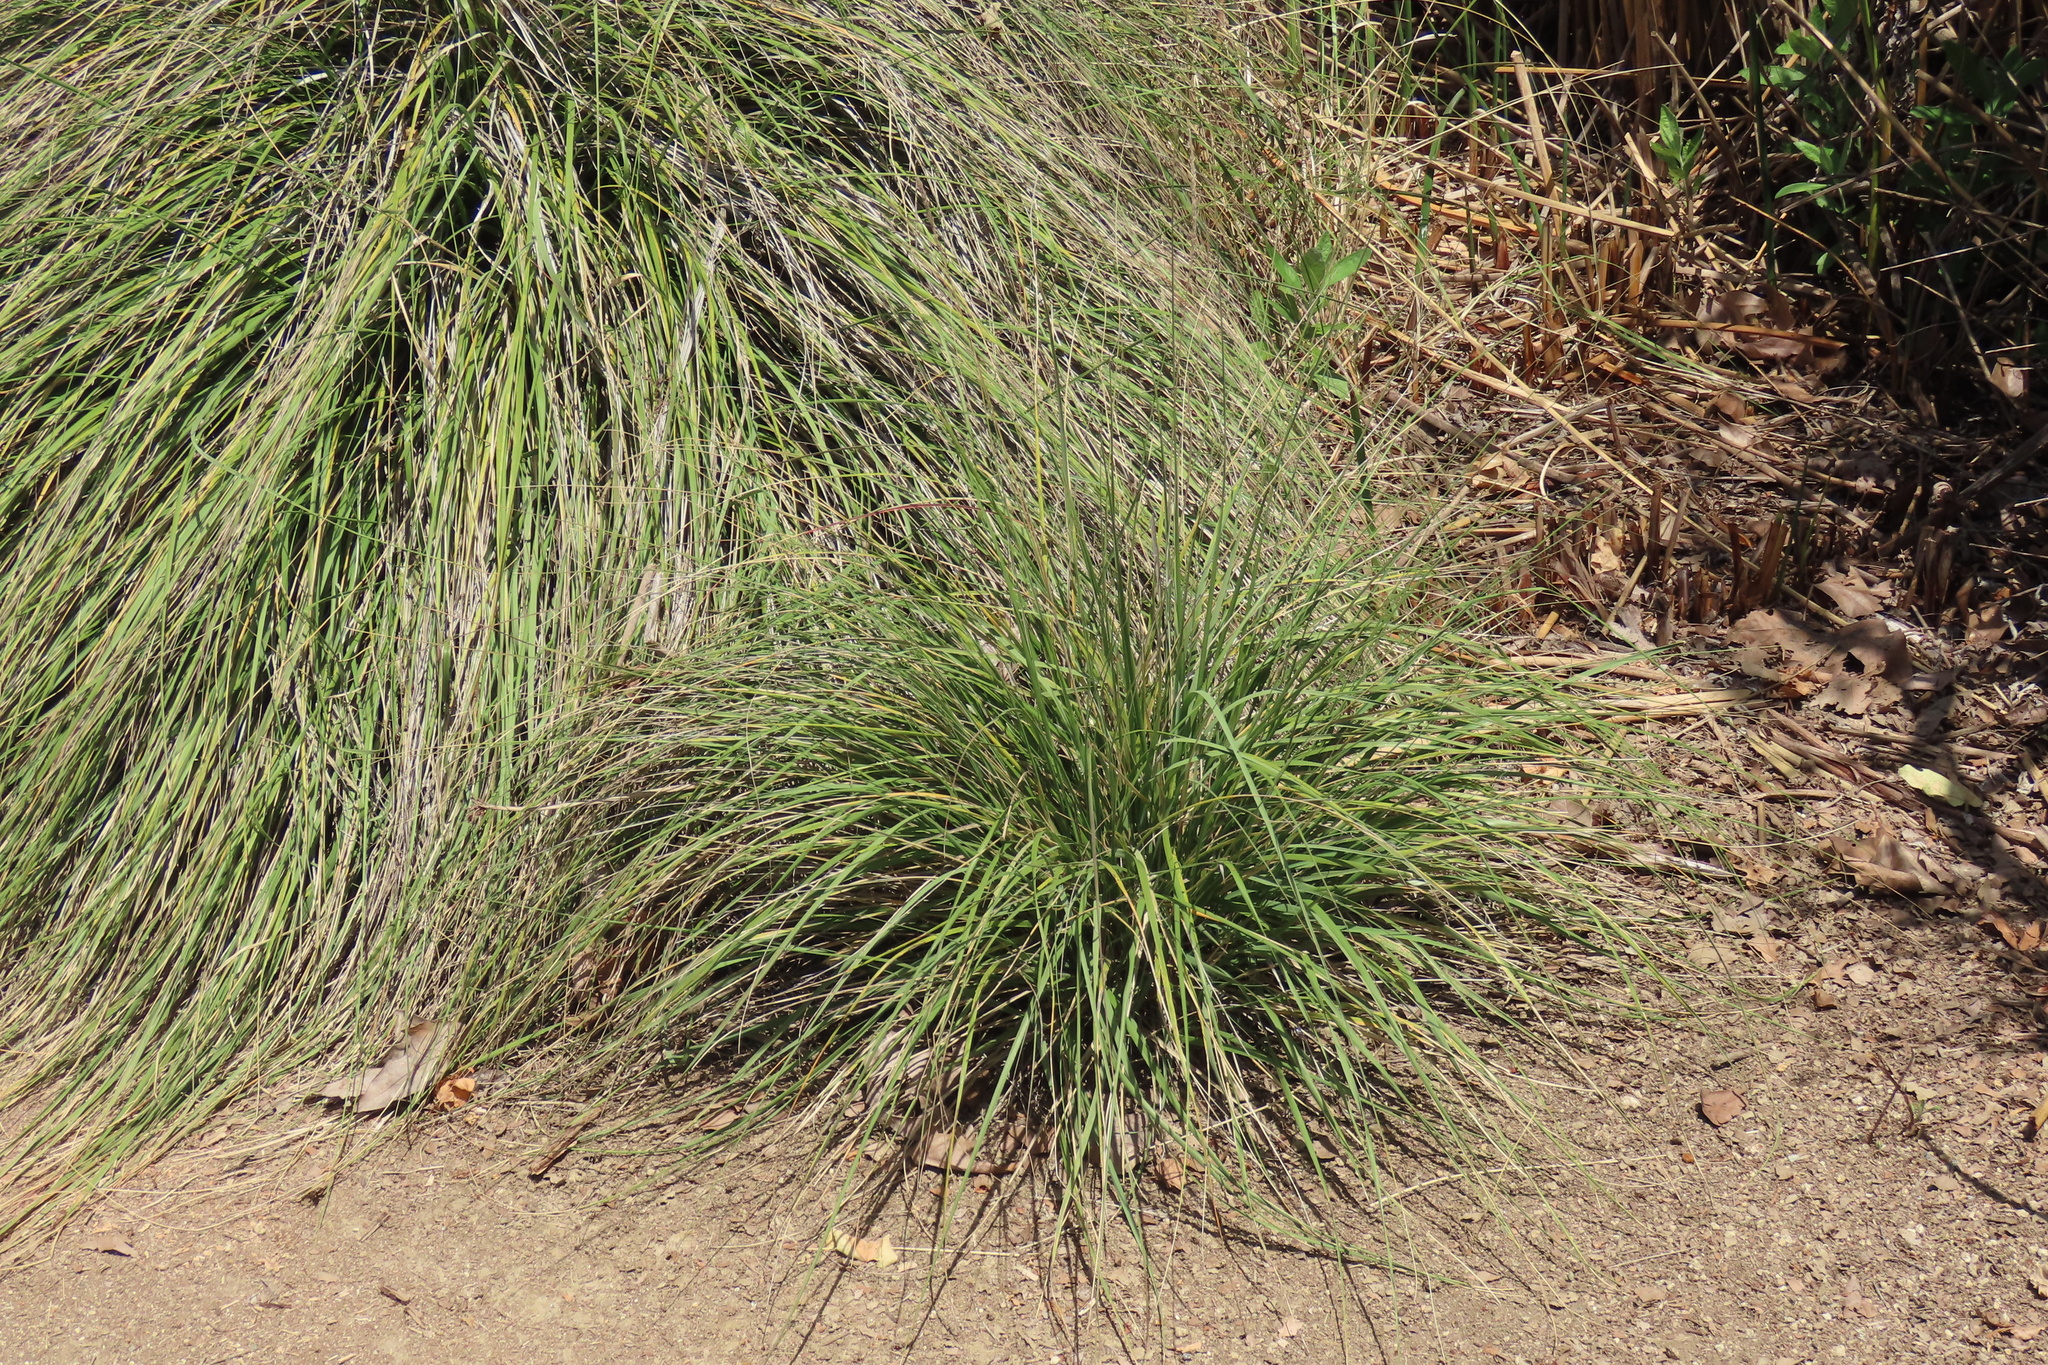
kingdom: Plantae
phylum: Tracheophyta
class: Liliopsida
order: Poales
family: Poaceae
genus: Muhlenbergia
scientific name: Muhlenbergia rigens
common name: Deer grass
